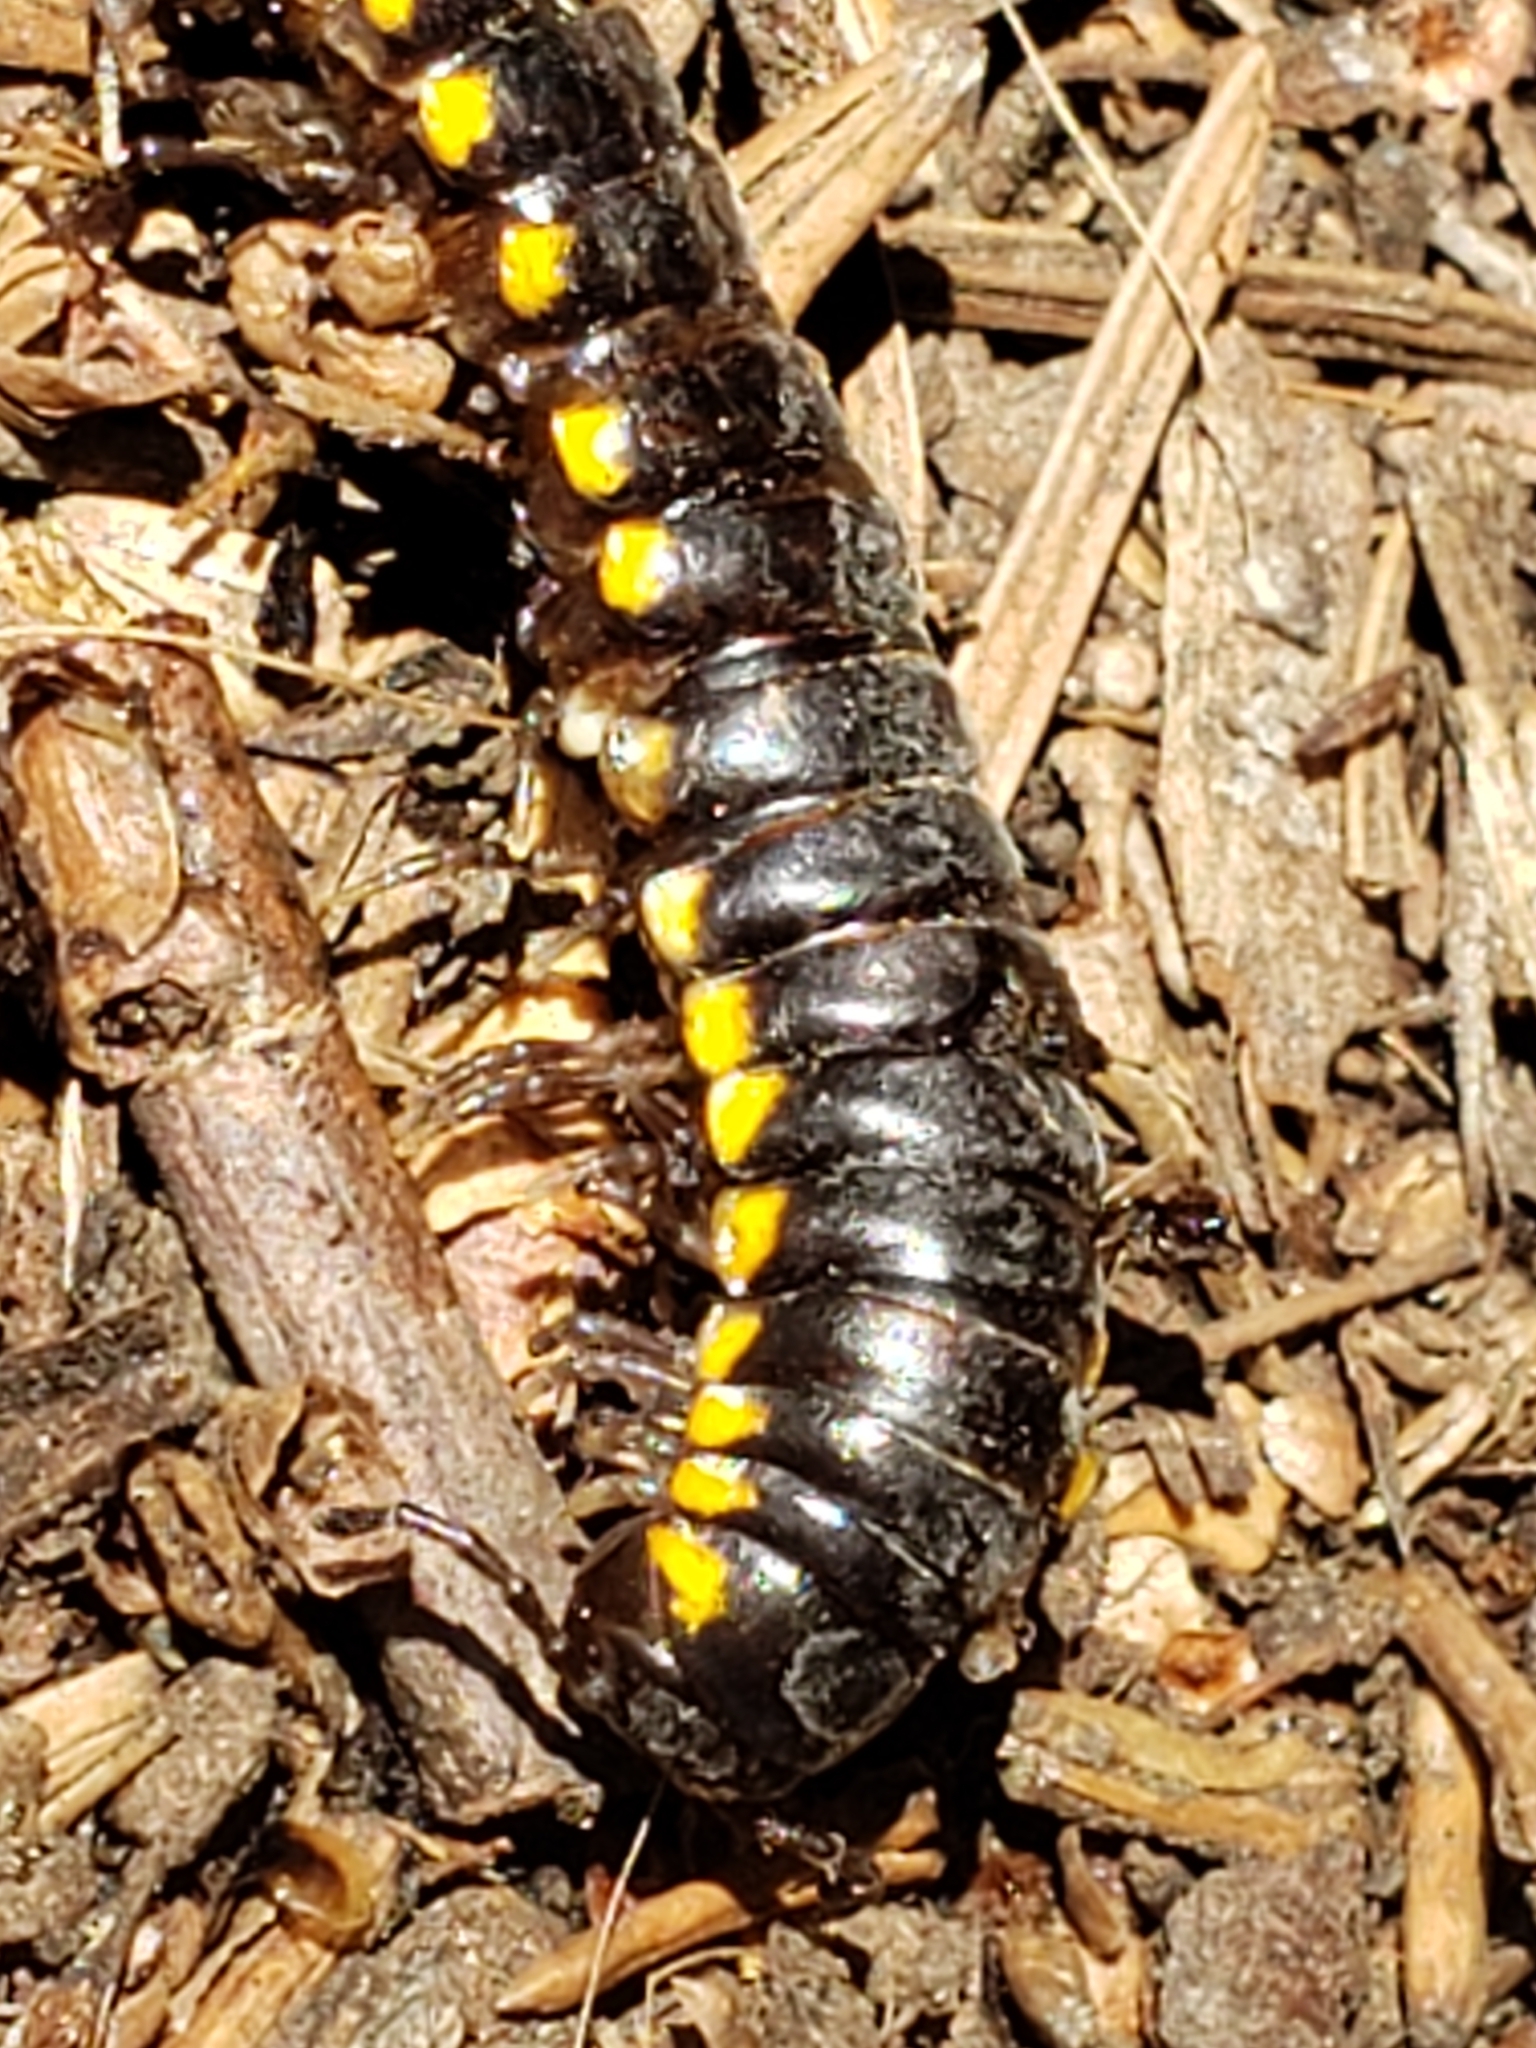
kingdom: Animalia
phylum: Arthropoda
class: Diplopoda
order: Polydesmida
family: Xystodesmidae
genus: Harpaphe
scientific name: Harpaphe haydeniana
